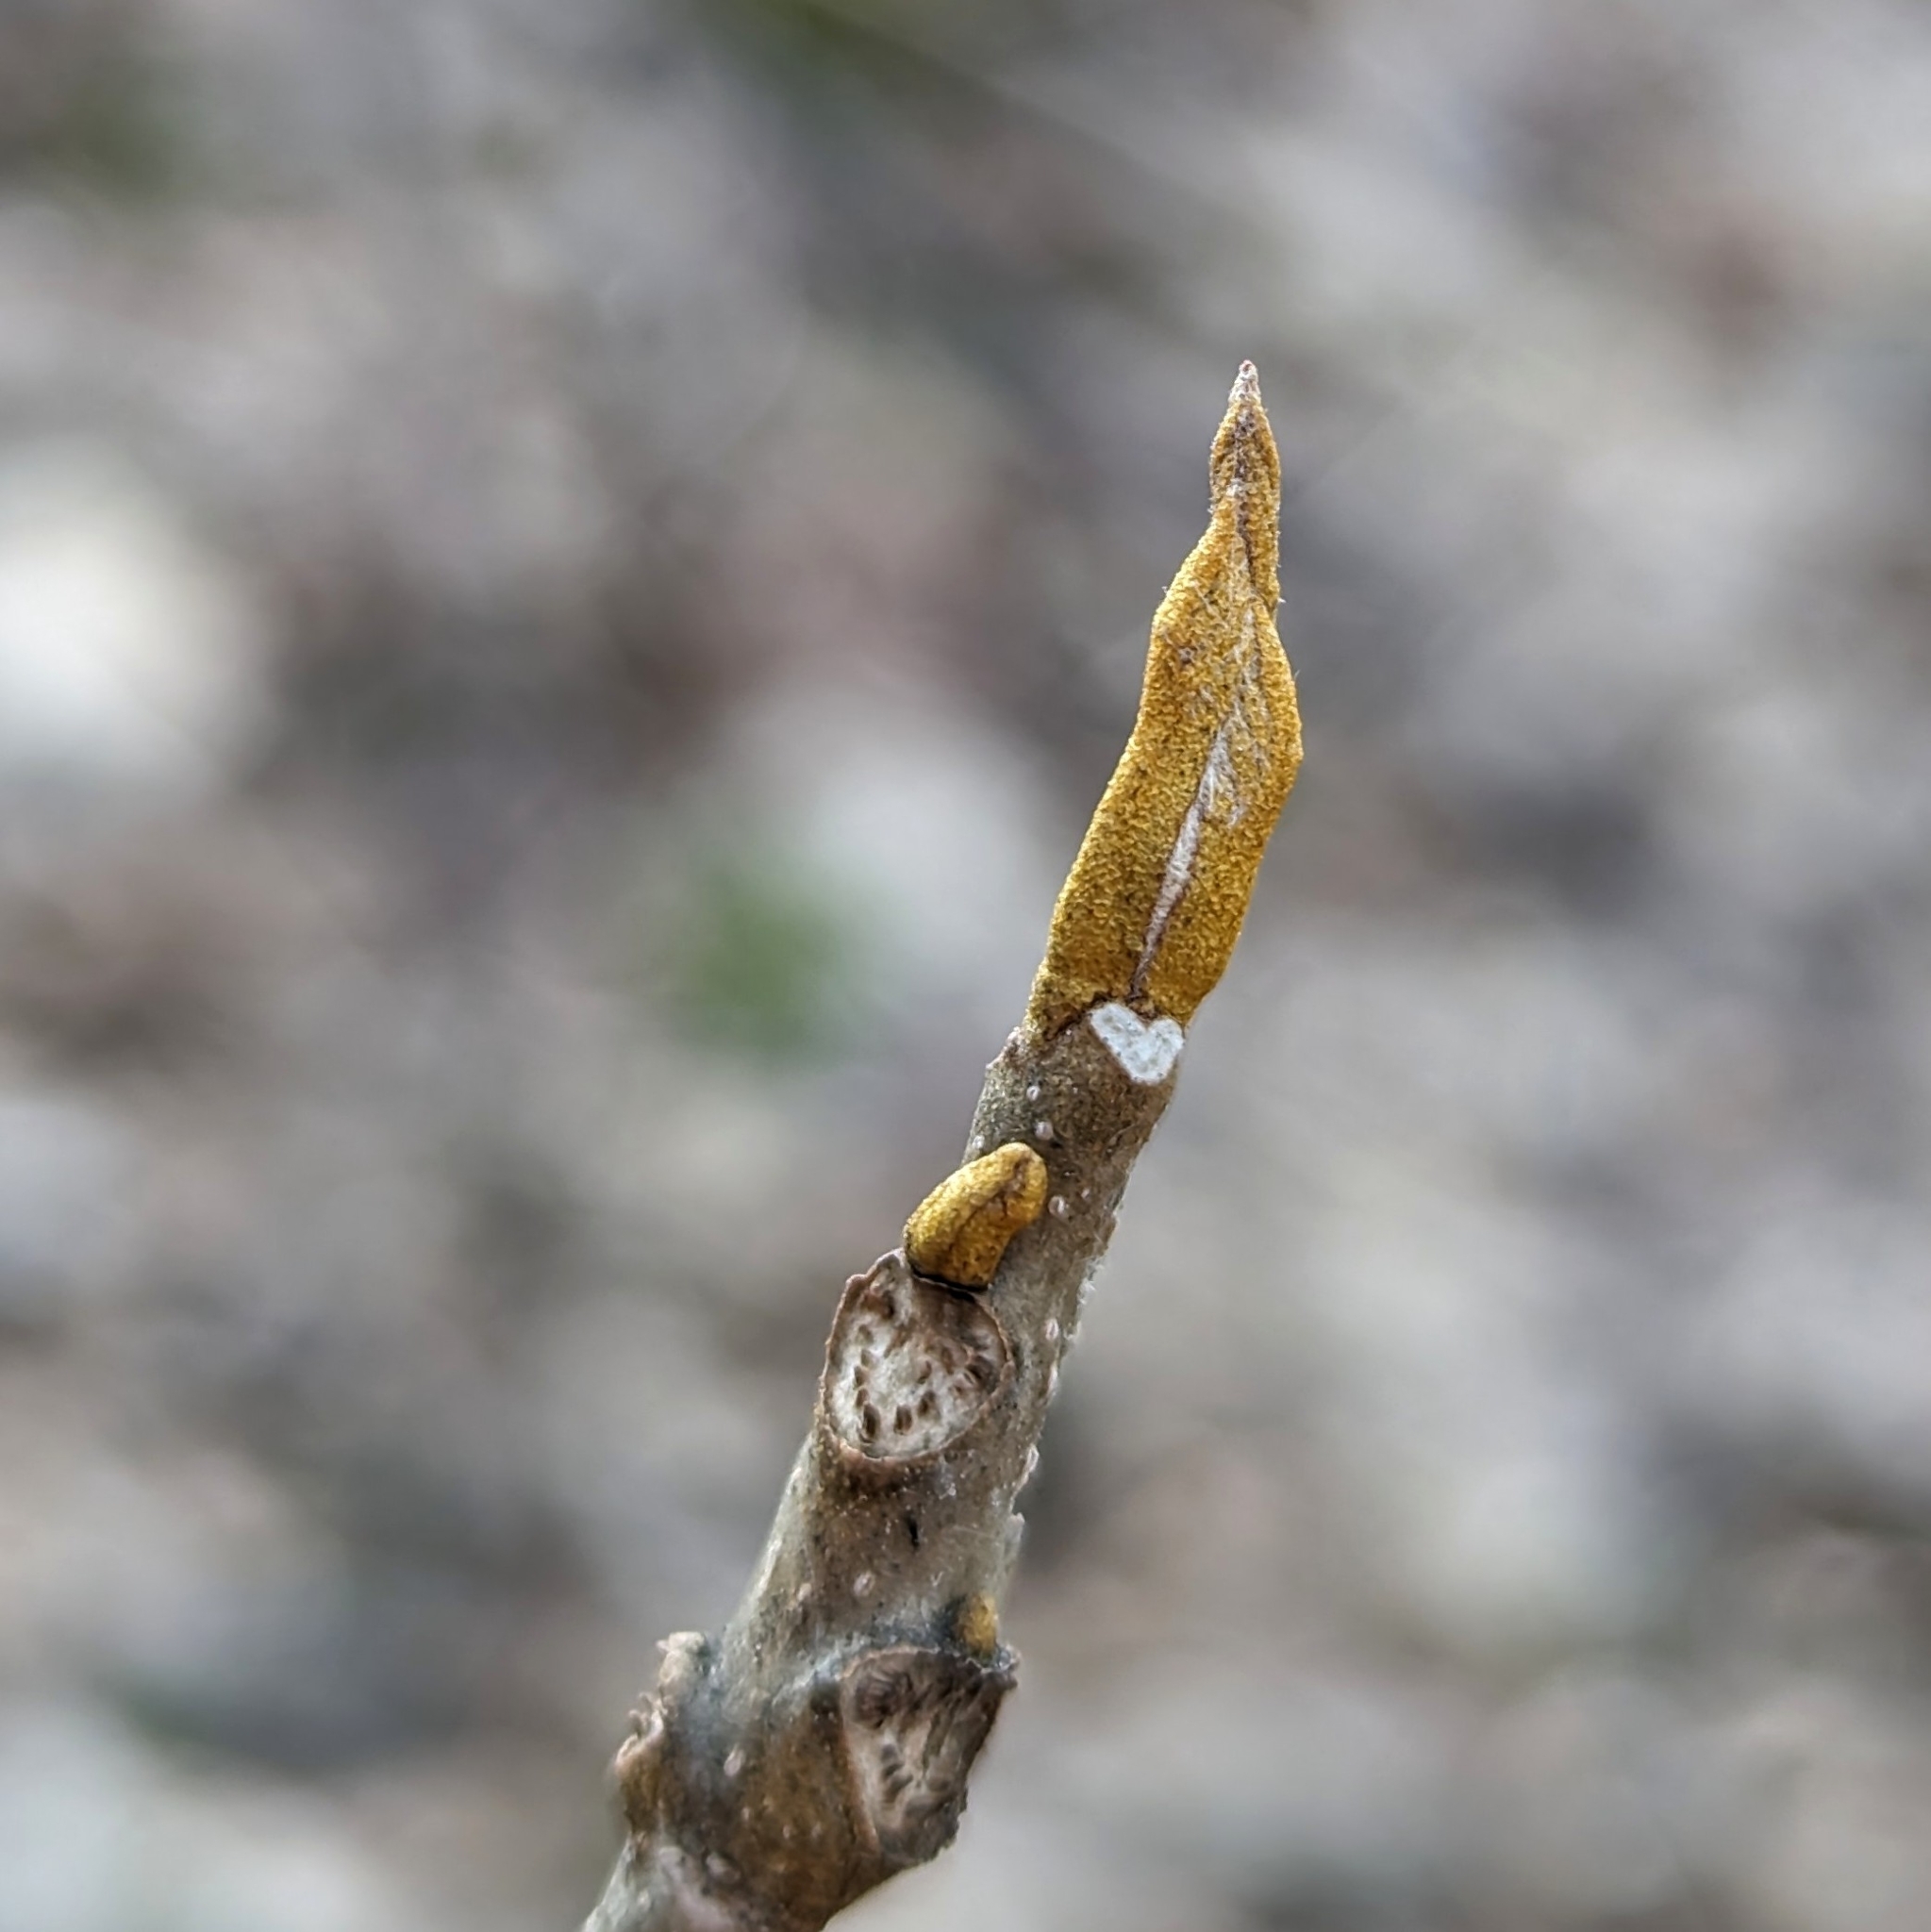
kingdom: Plantae
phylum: Tracheophyta
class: Magnoliopsida
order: Fagales
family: Juglandaceae
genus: Carya
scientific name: Carya cordiformis
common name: Bitternut hickory
